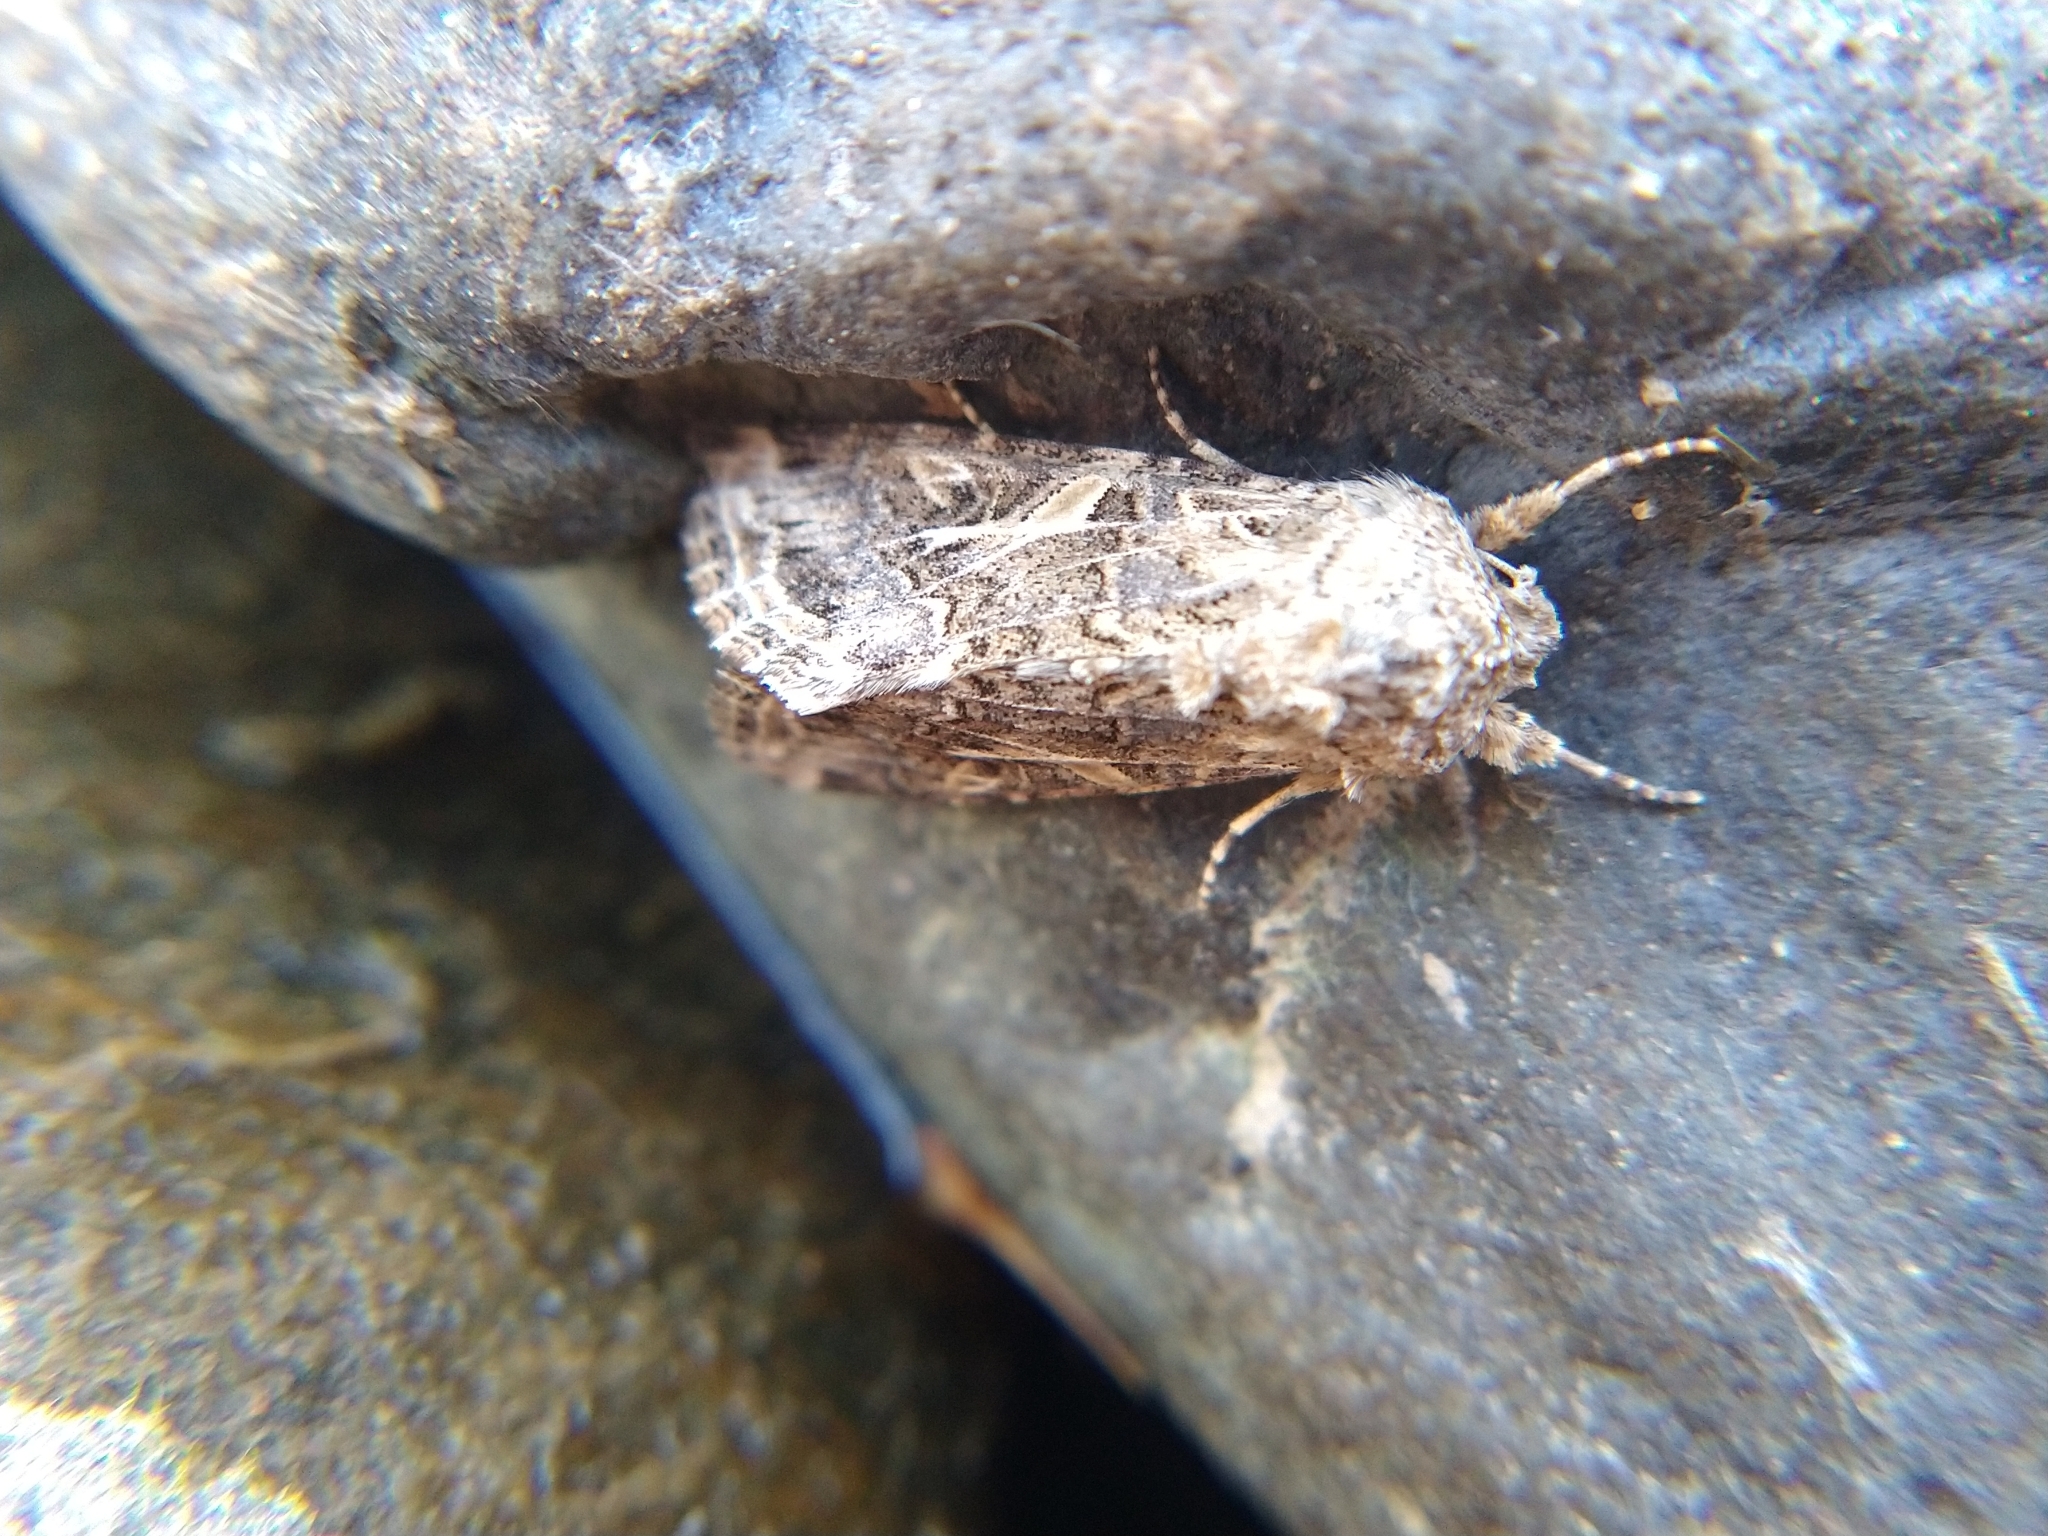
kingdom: Animalia
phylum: Arthropoda
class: Insecta
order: Lepidoptera
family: Noctuidae
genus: Spodoptera
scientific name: Spodoptera praefica
